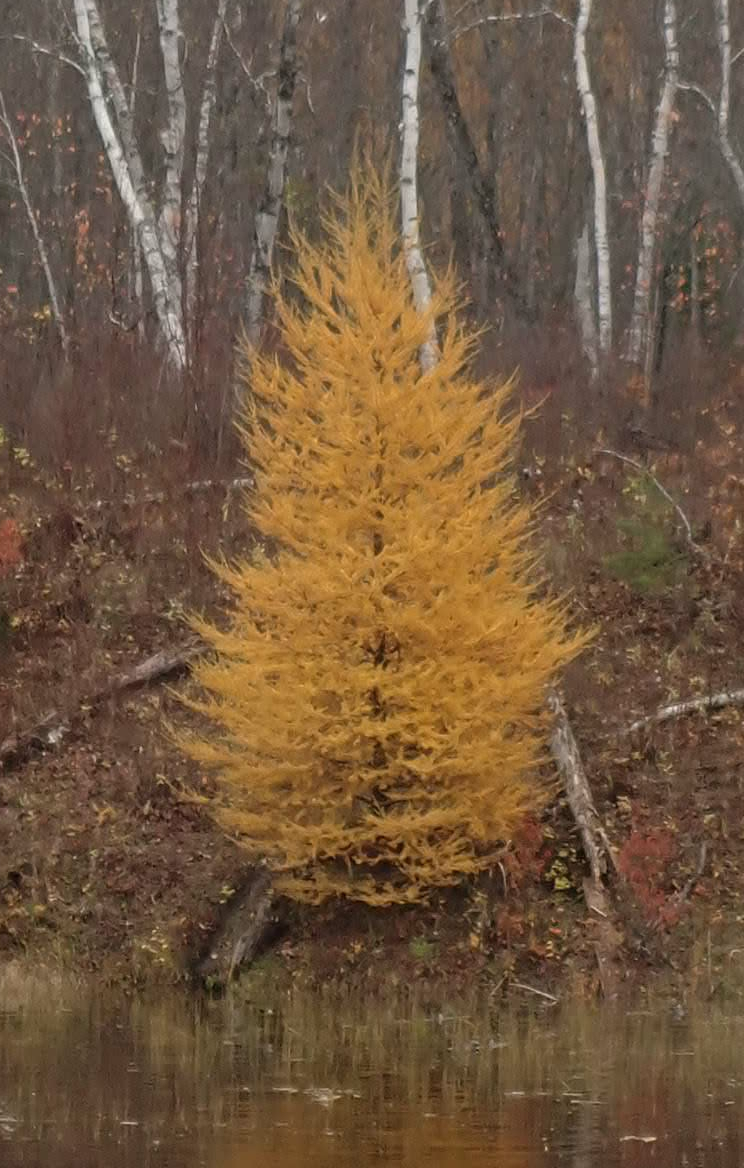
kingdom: Plantae
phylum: Tracheophyta
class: Pinopsida
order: Pinales
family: Pinaceae
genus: Larix
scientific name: Larix laricina
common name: American larch
